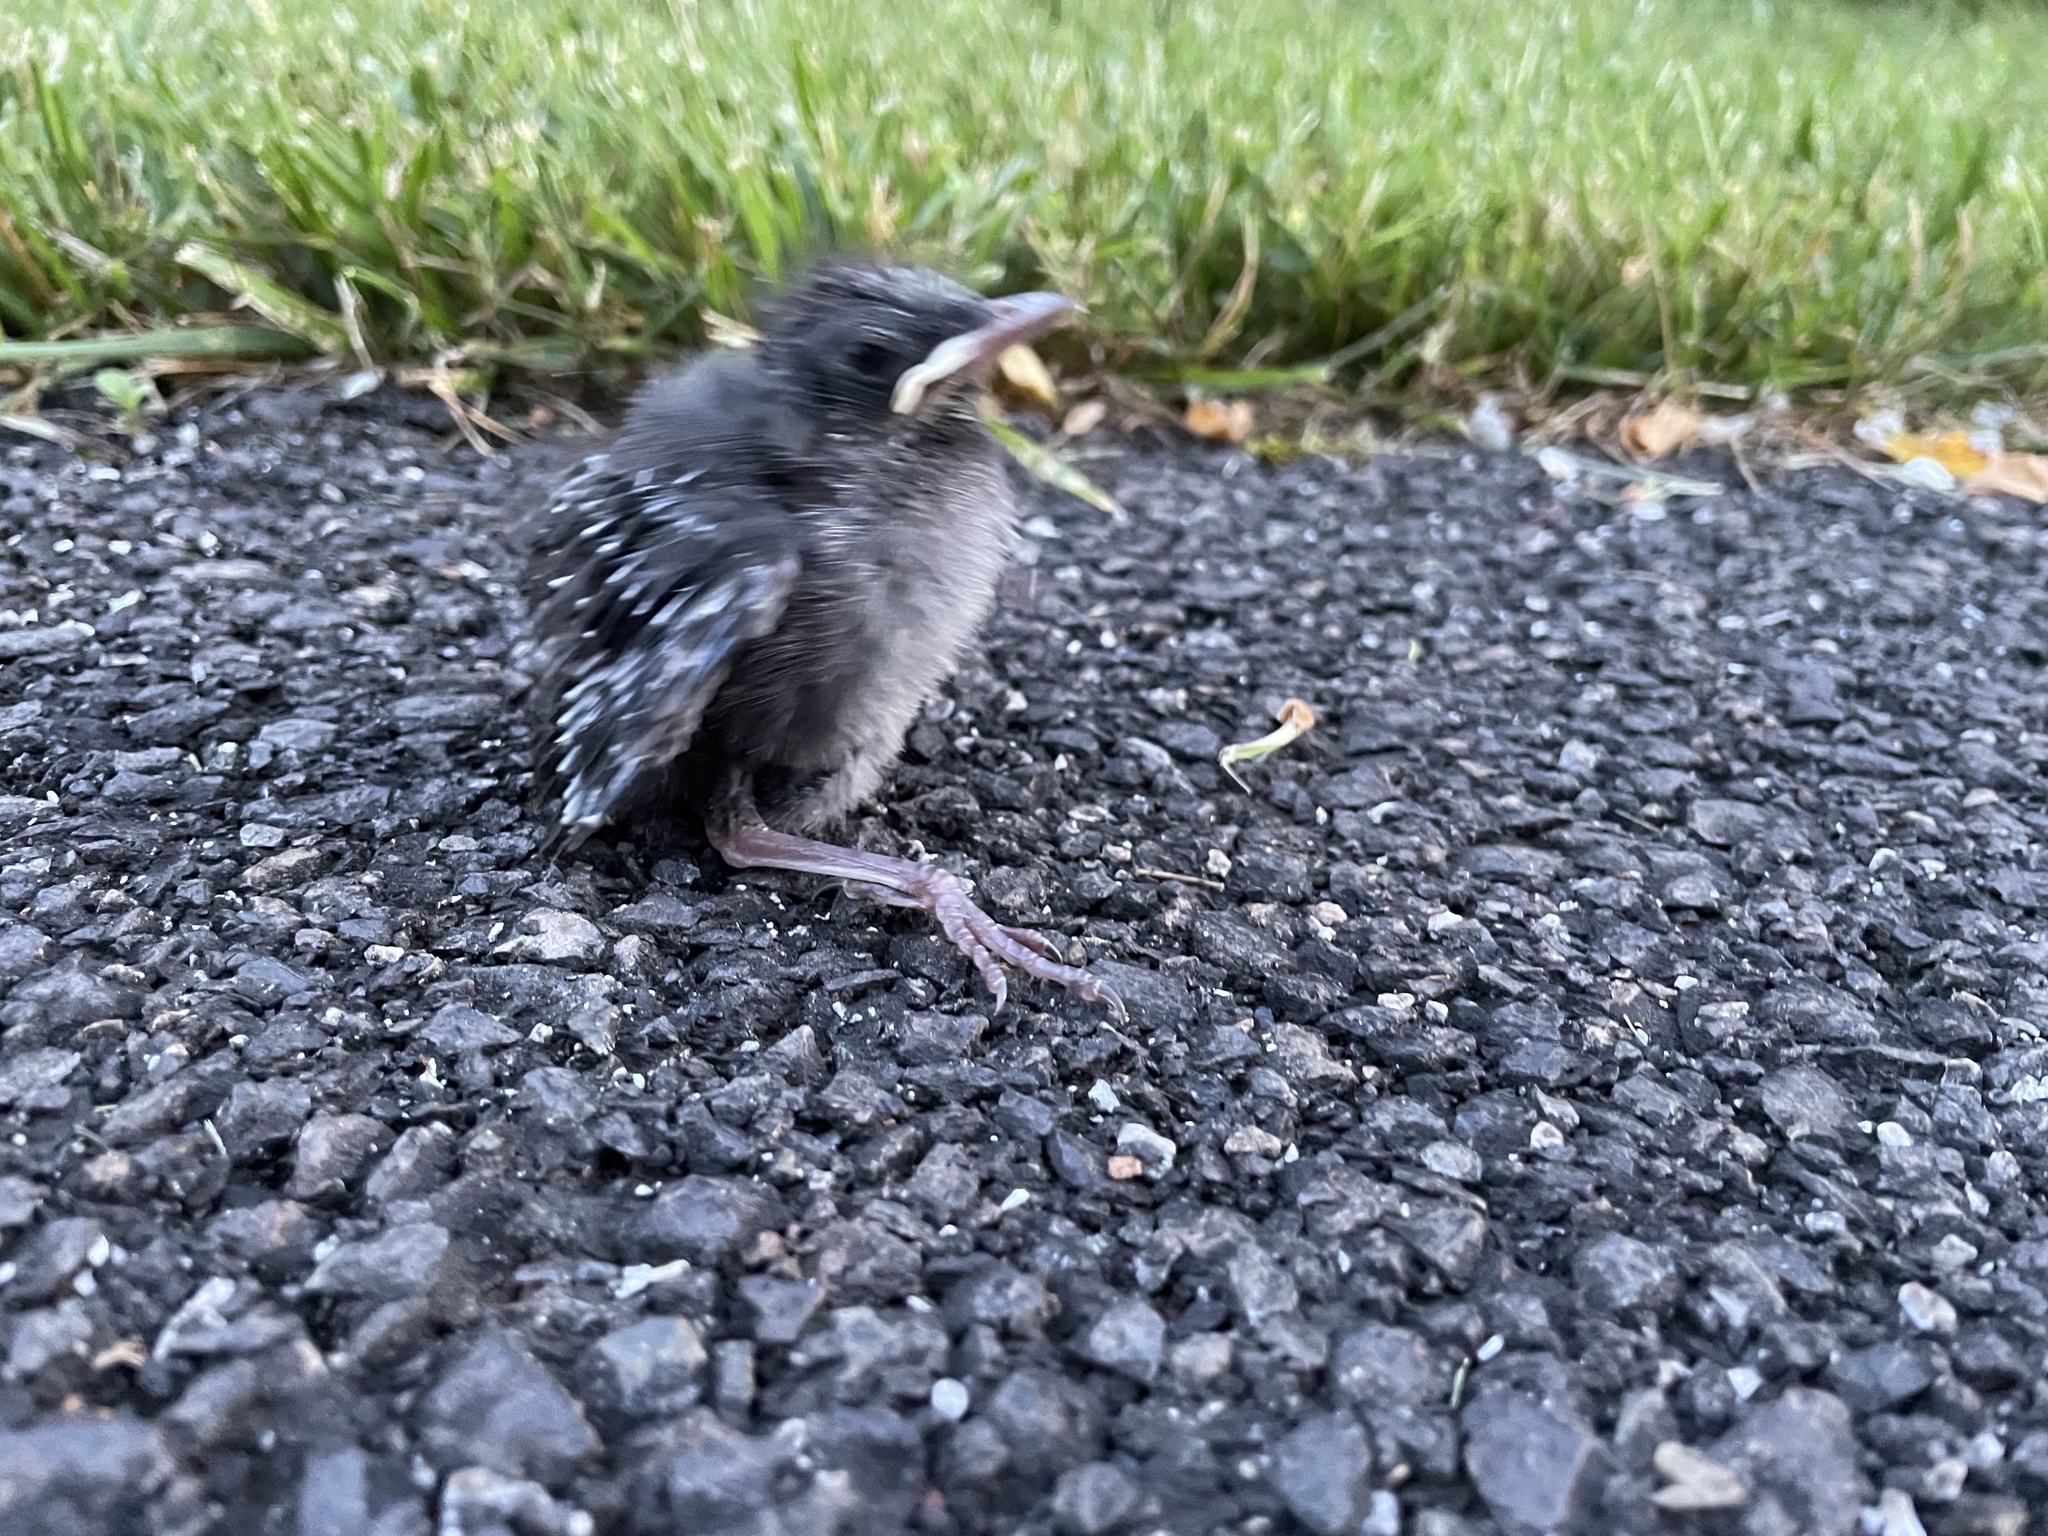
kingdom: Animalia
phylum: Chordata
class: Aves
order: Passeriformes
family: Mimidae
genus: Dumetella
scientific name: Dumetella carolinensis
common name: Gray catbird
